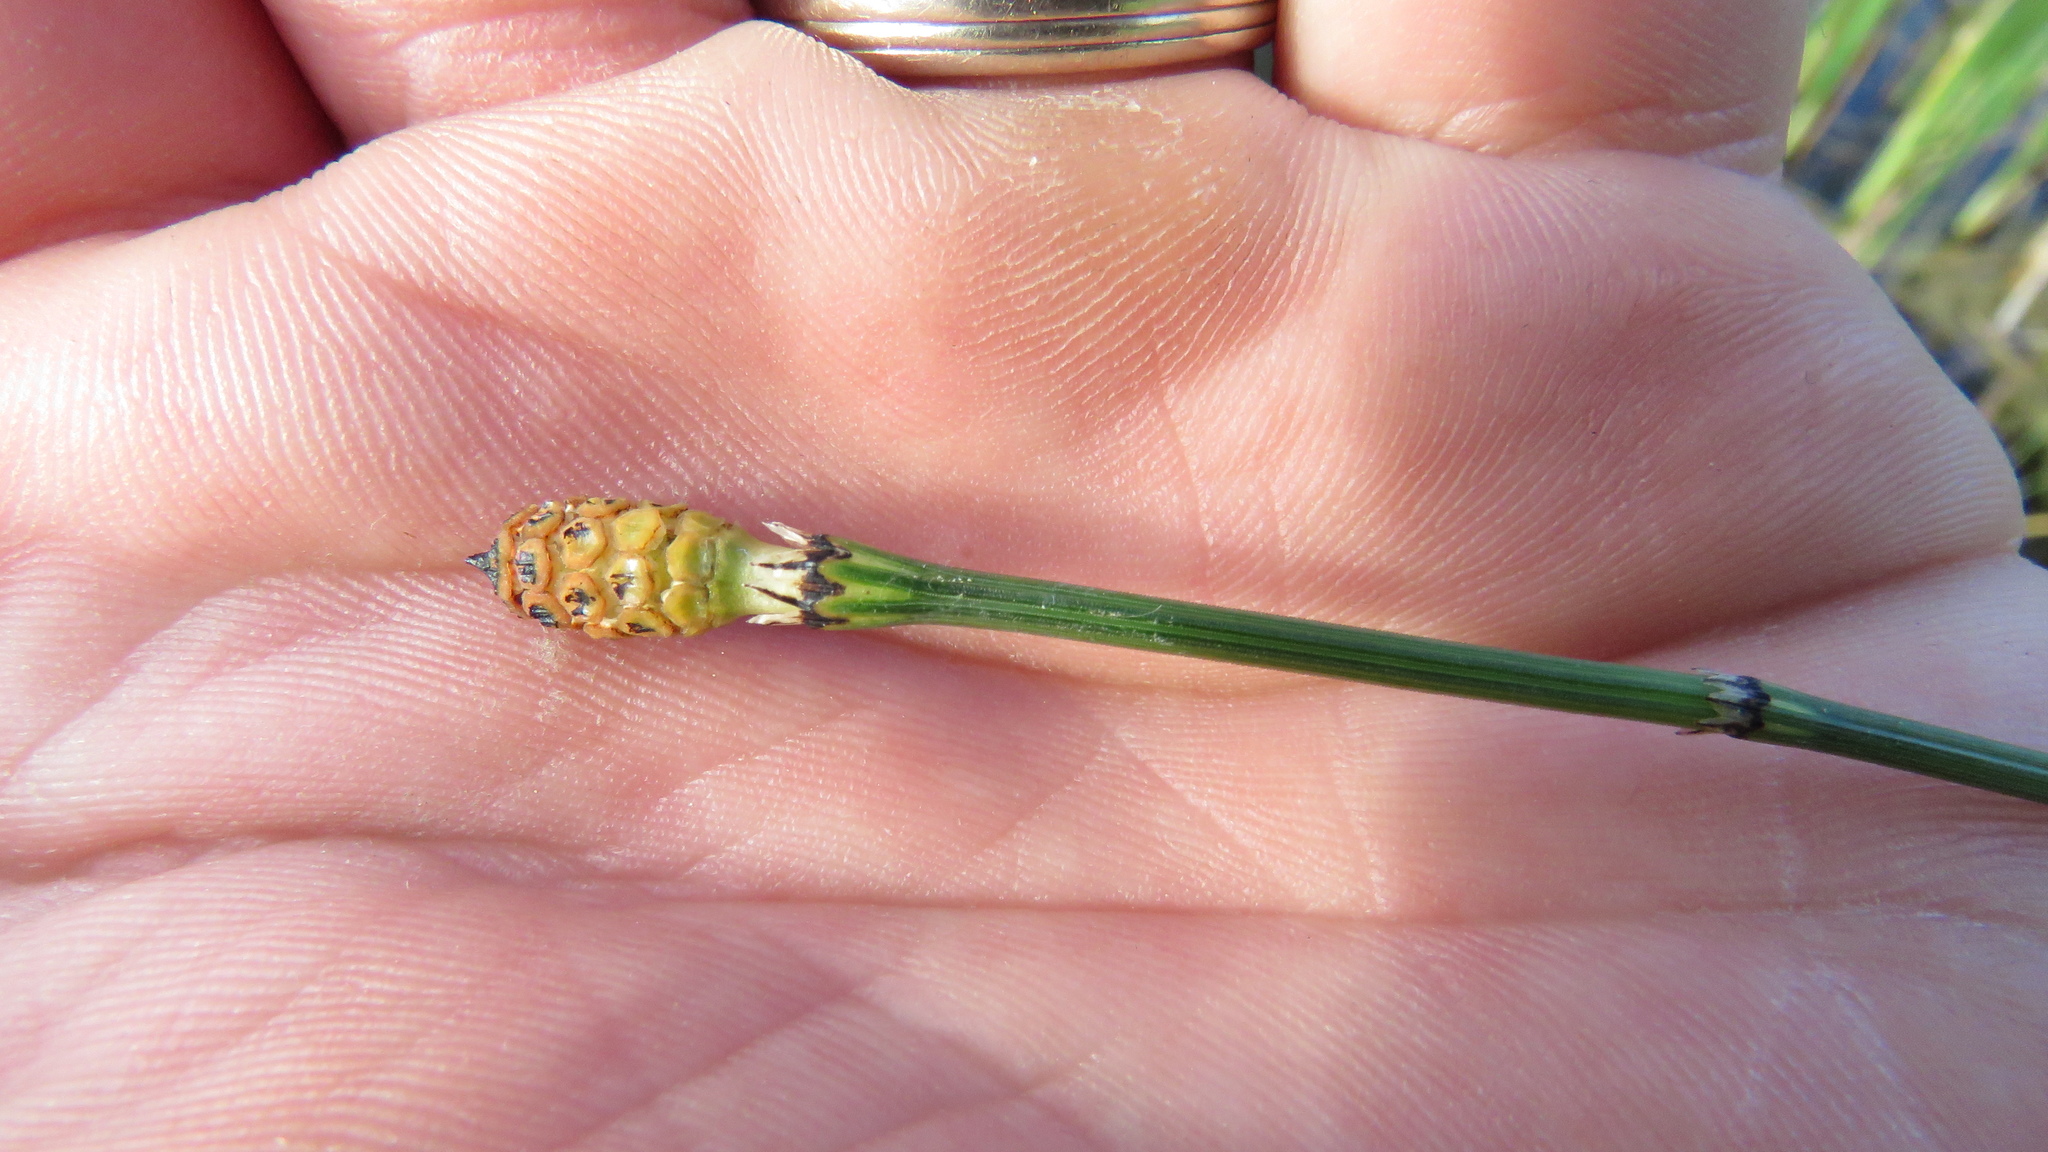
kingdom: Plantae
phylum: Tracheophyta
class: Polypodiopsida
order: Equisetales
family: Equisetaceae
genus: Equisetum
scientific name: Equisetum variegatum
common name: Variegated horsetail
